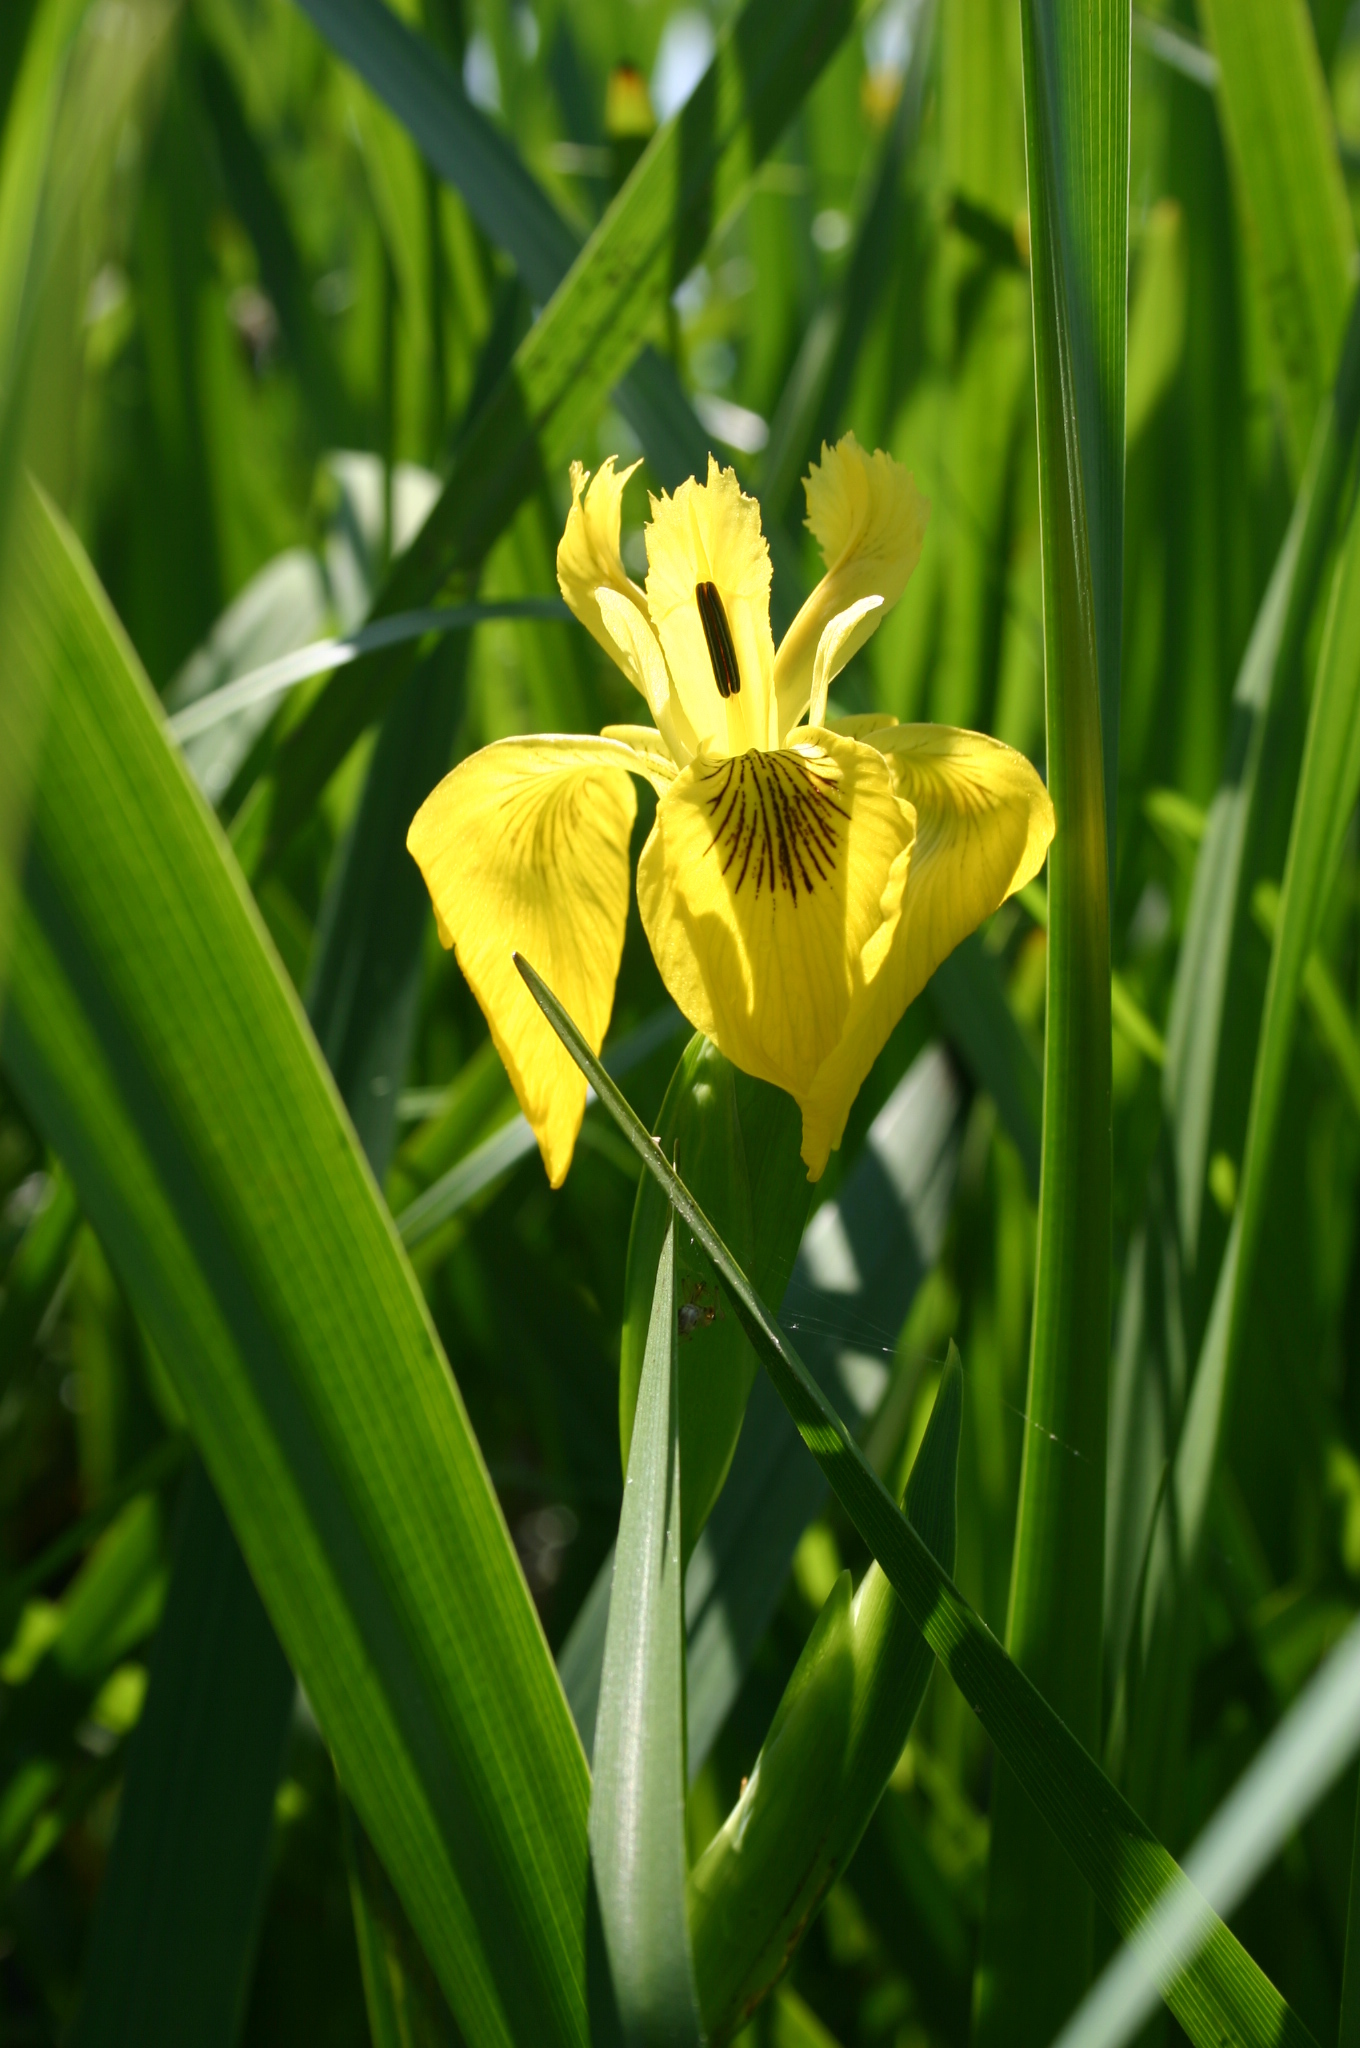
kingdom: Plantae
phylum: Tracheophyta
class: Liliopsida
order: Asparagales
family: Iridaceae
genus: Iris
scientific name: Iris pseudacorus
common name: Yellow flag
